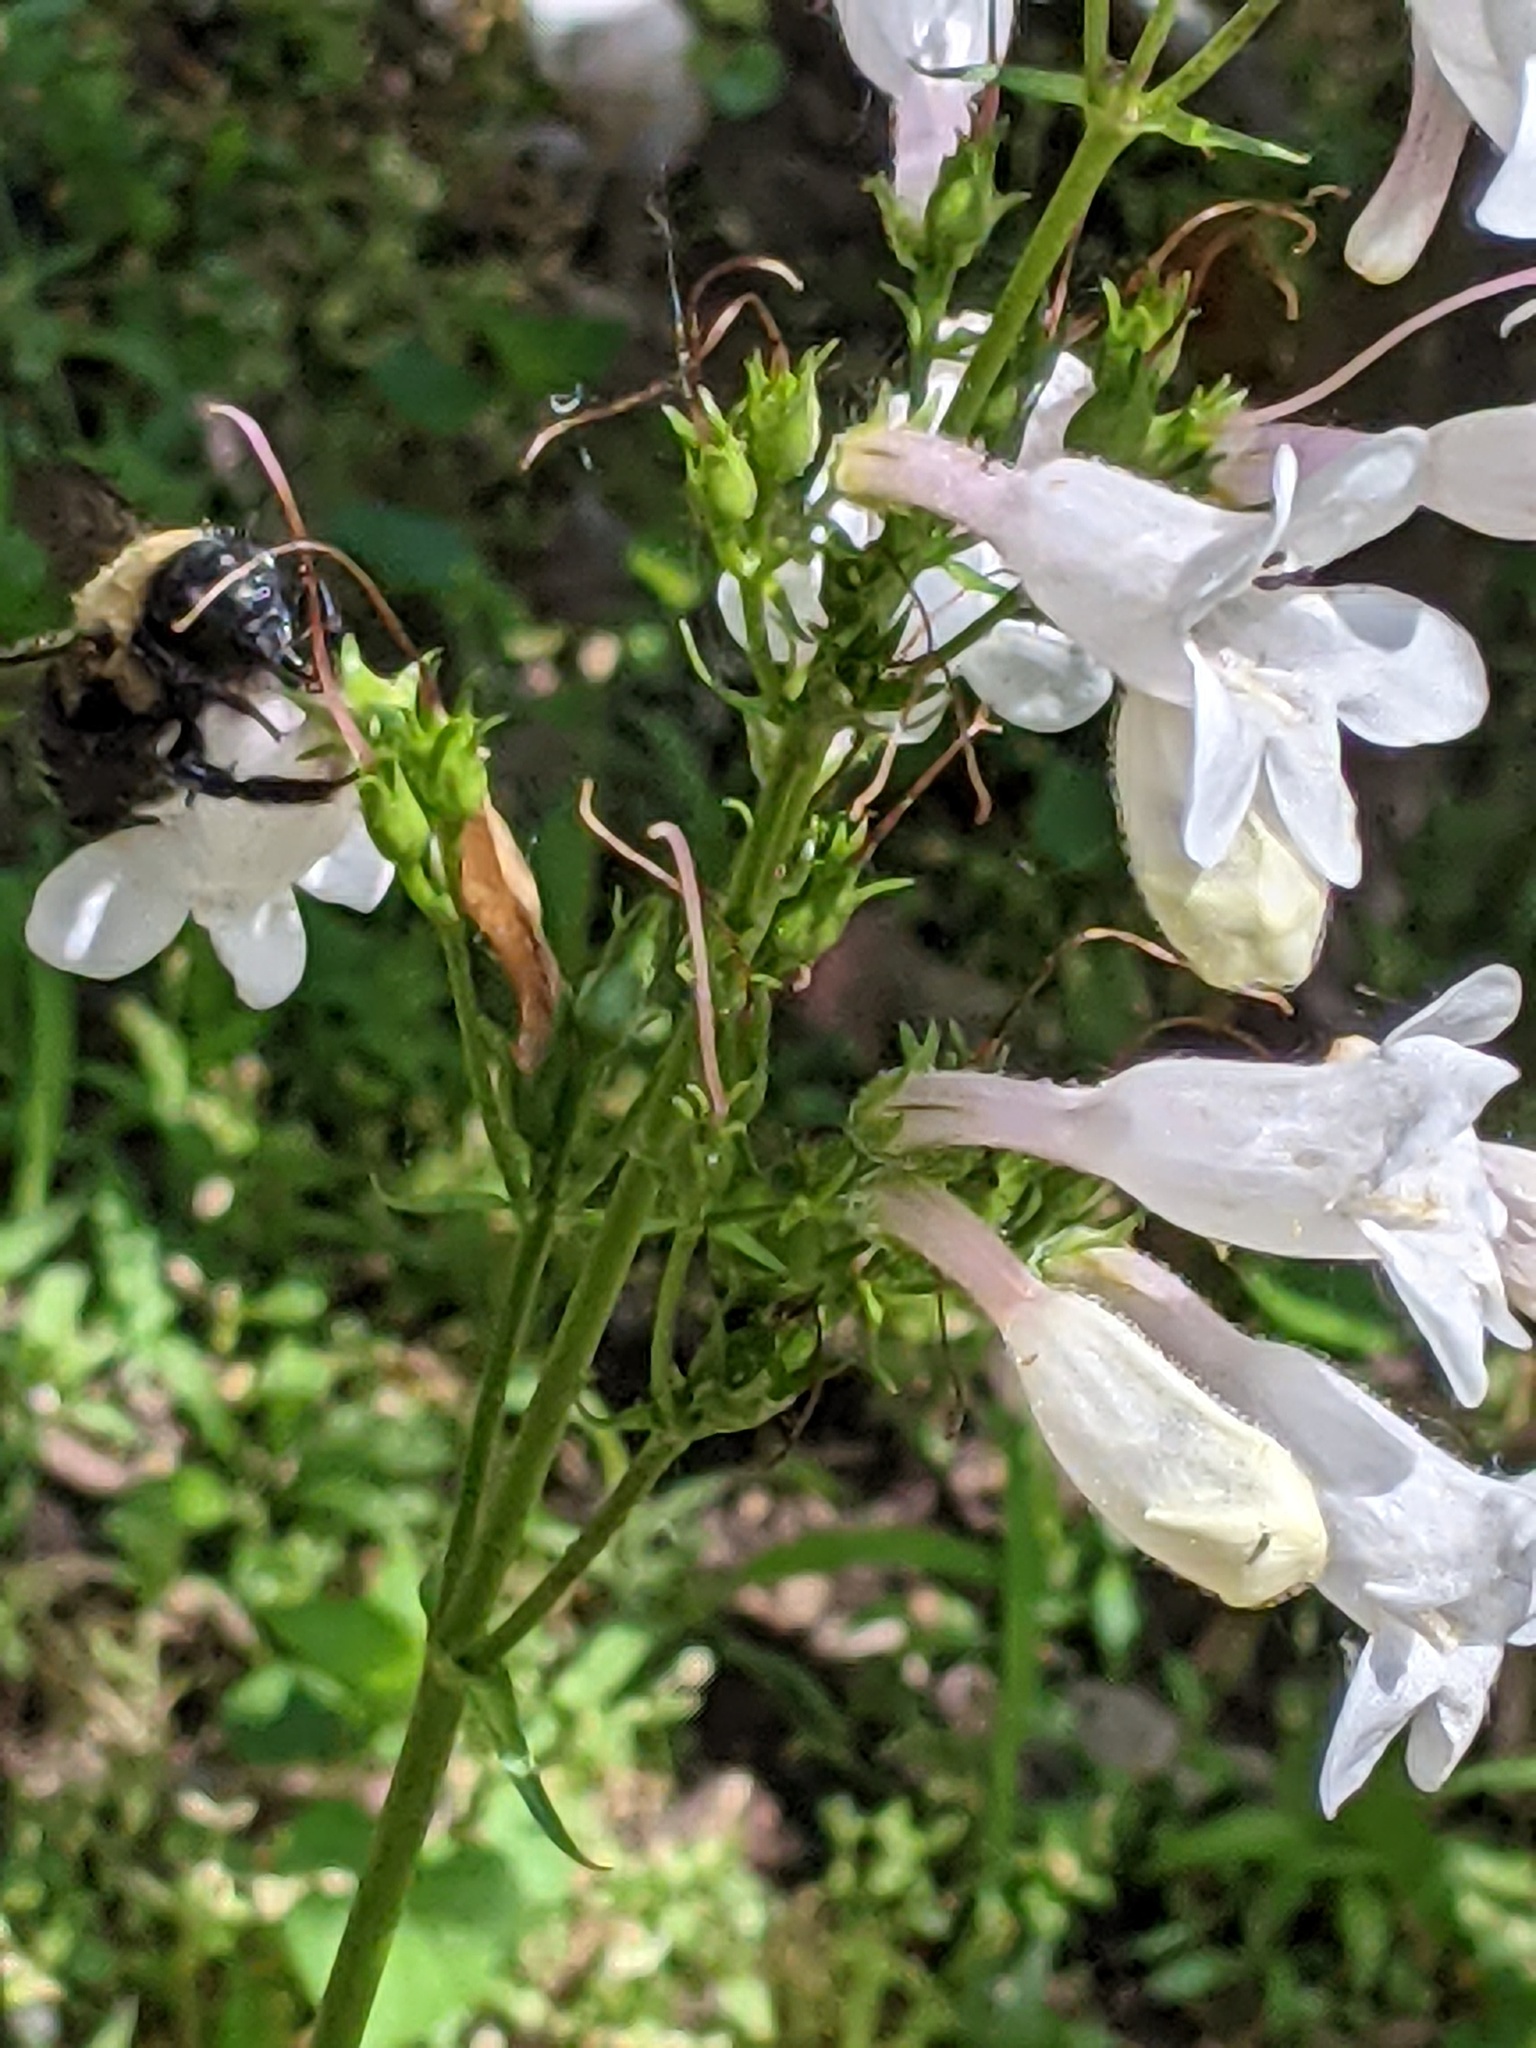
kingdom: Animalia
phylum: Arthropoda
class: Insecta
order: Hymenoptera
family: Apidae
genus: Xylocopa
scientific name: Xylocopa virginica
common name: Carpenter bee
